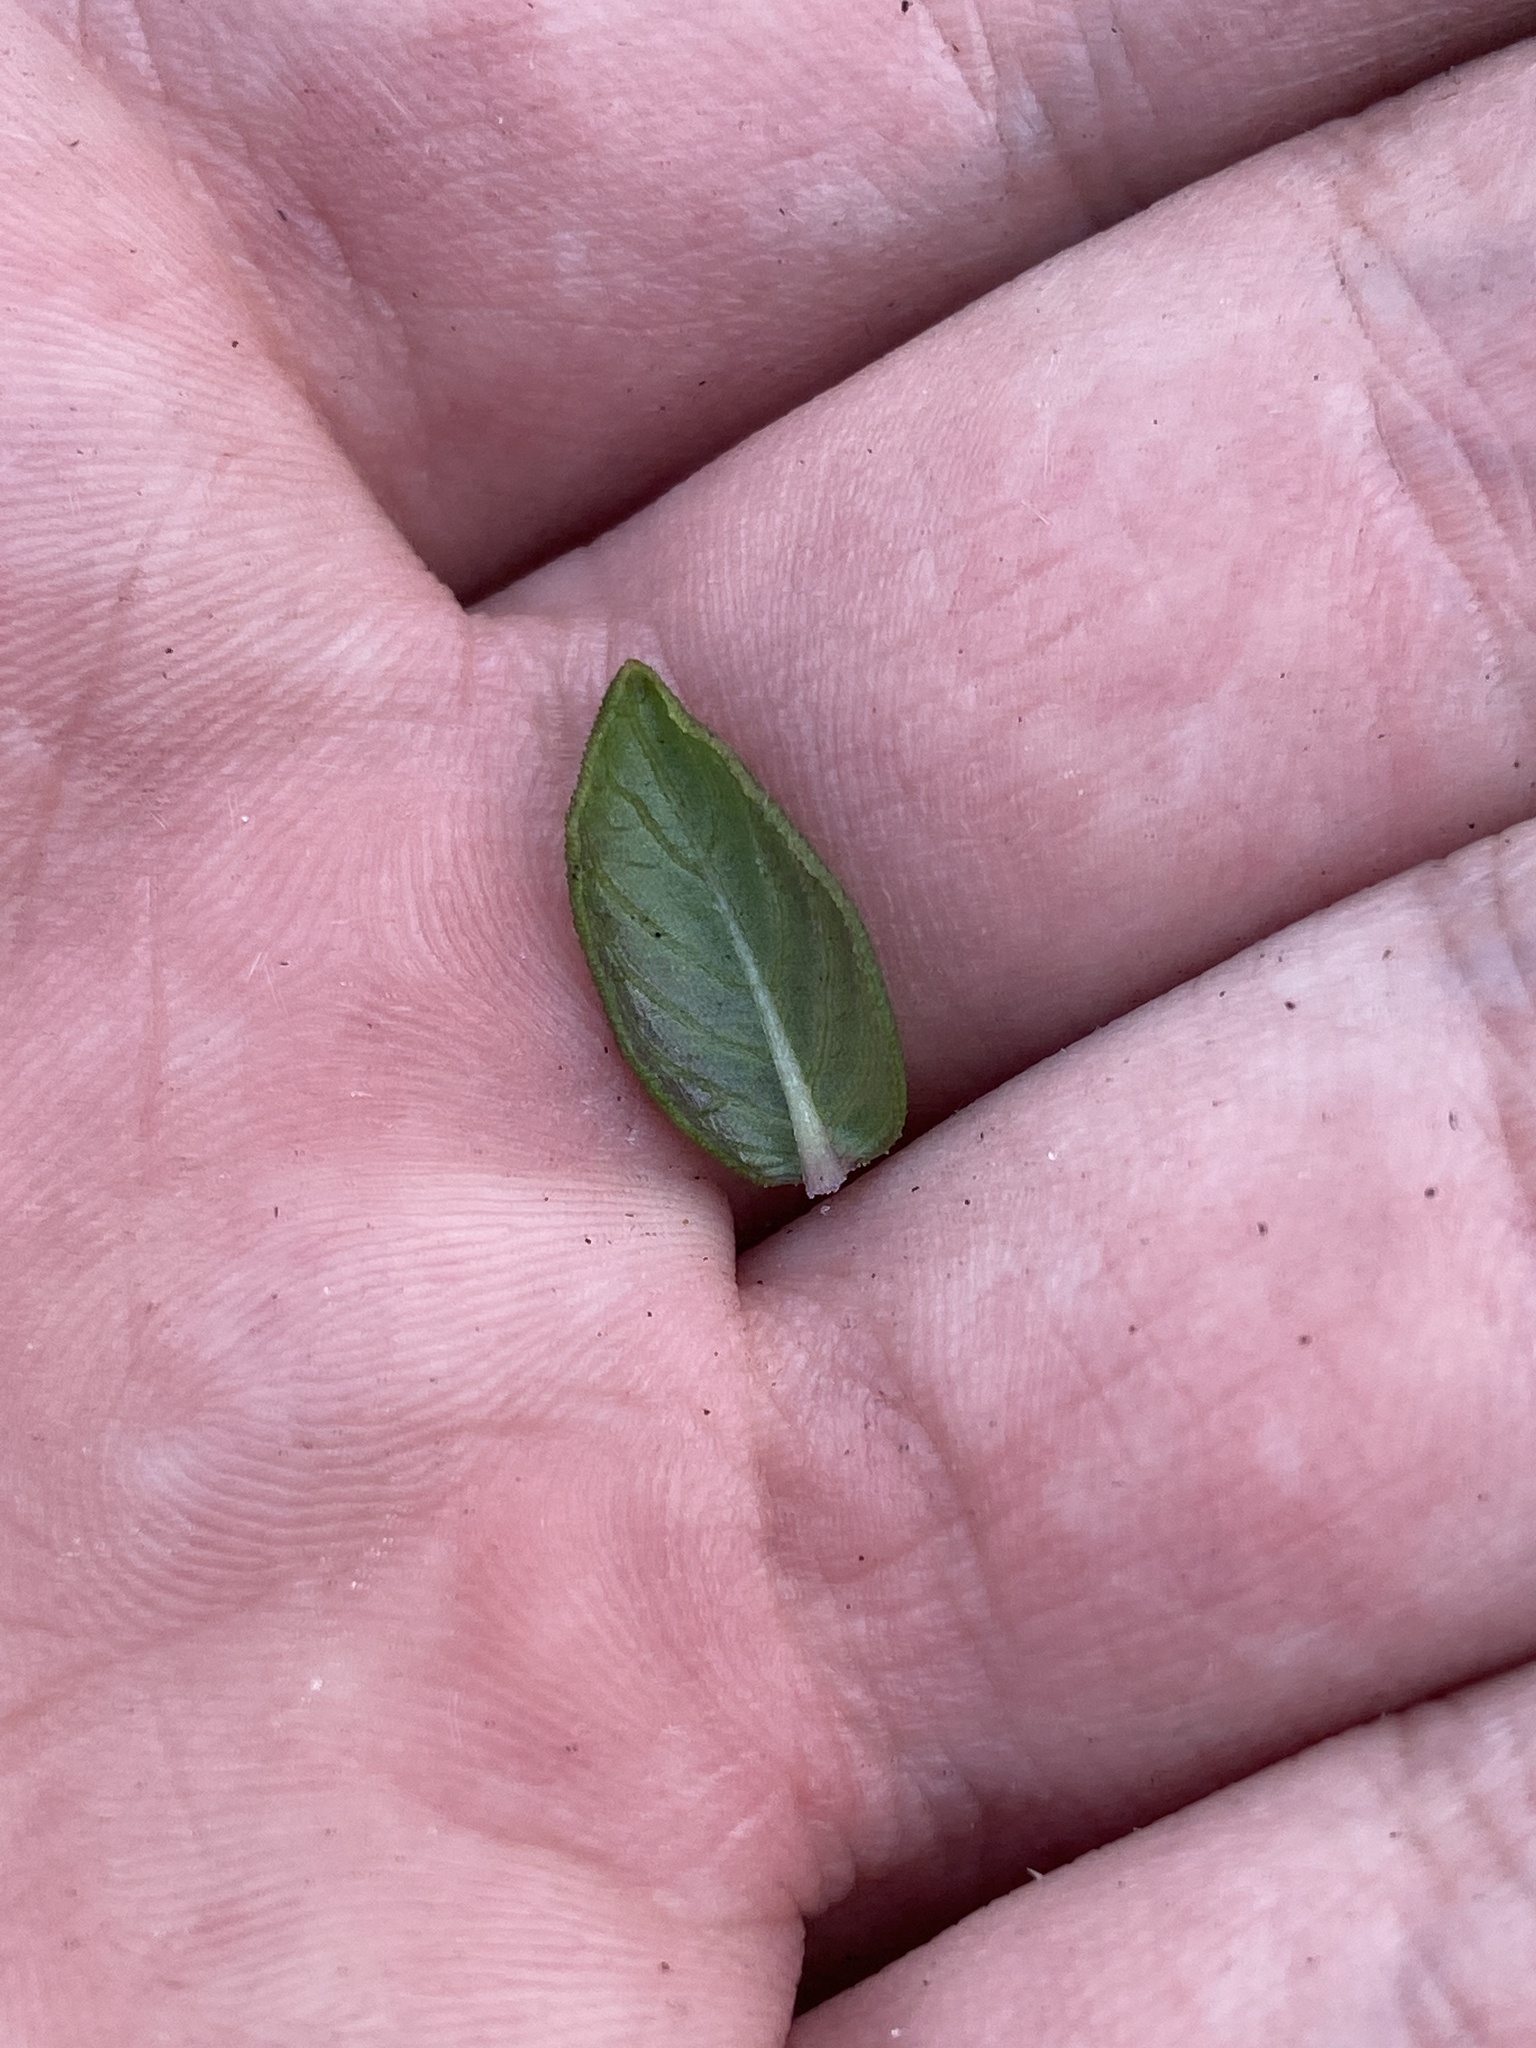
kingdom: Plantae
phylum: Tracheophyta
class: Magnoliopsida
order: Gentianales
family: Loganiaceae
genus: Mitreola
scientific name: Mitreola sessilifolia
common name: Swamp hornpod
